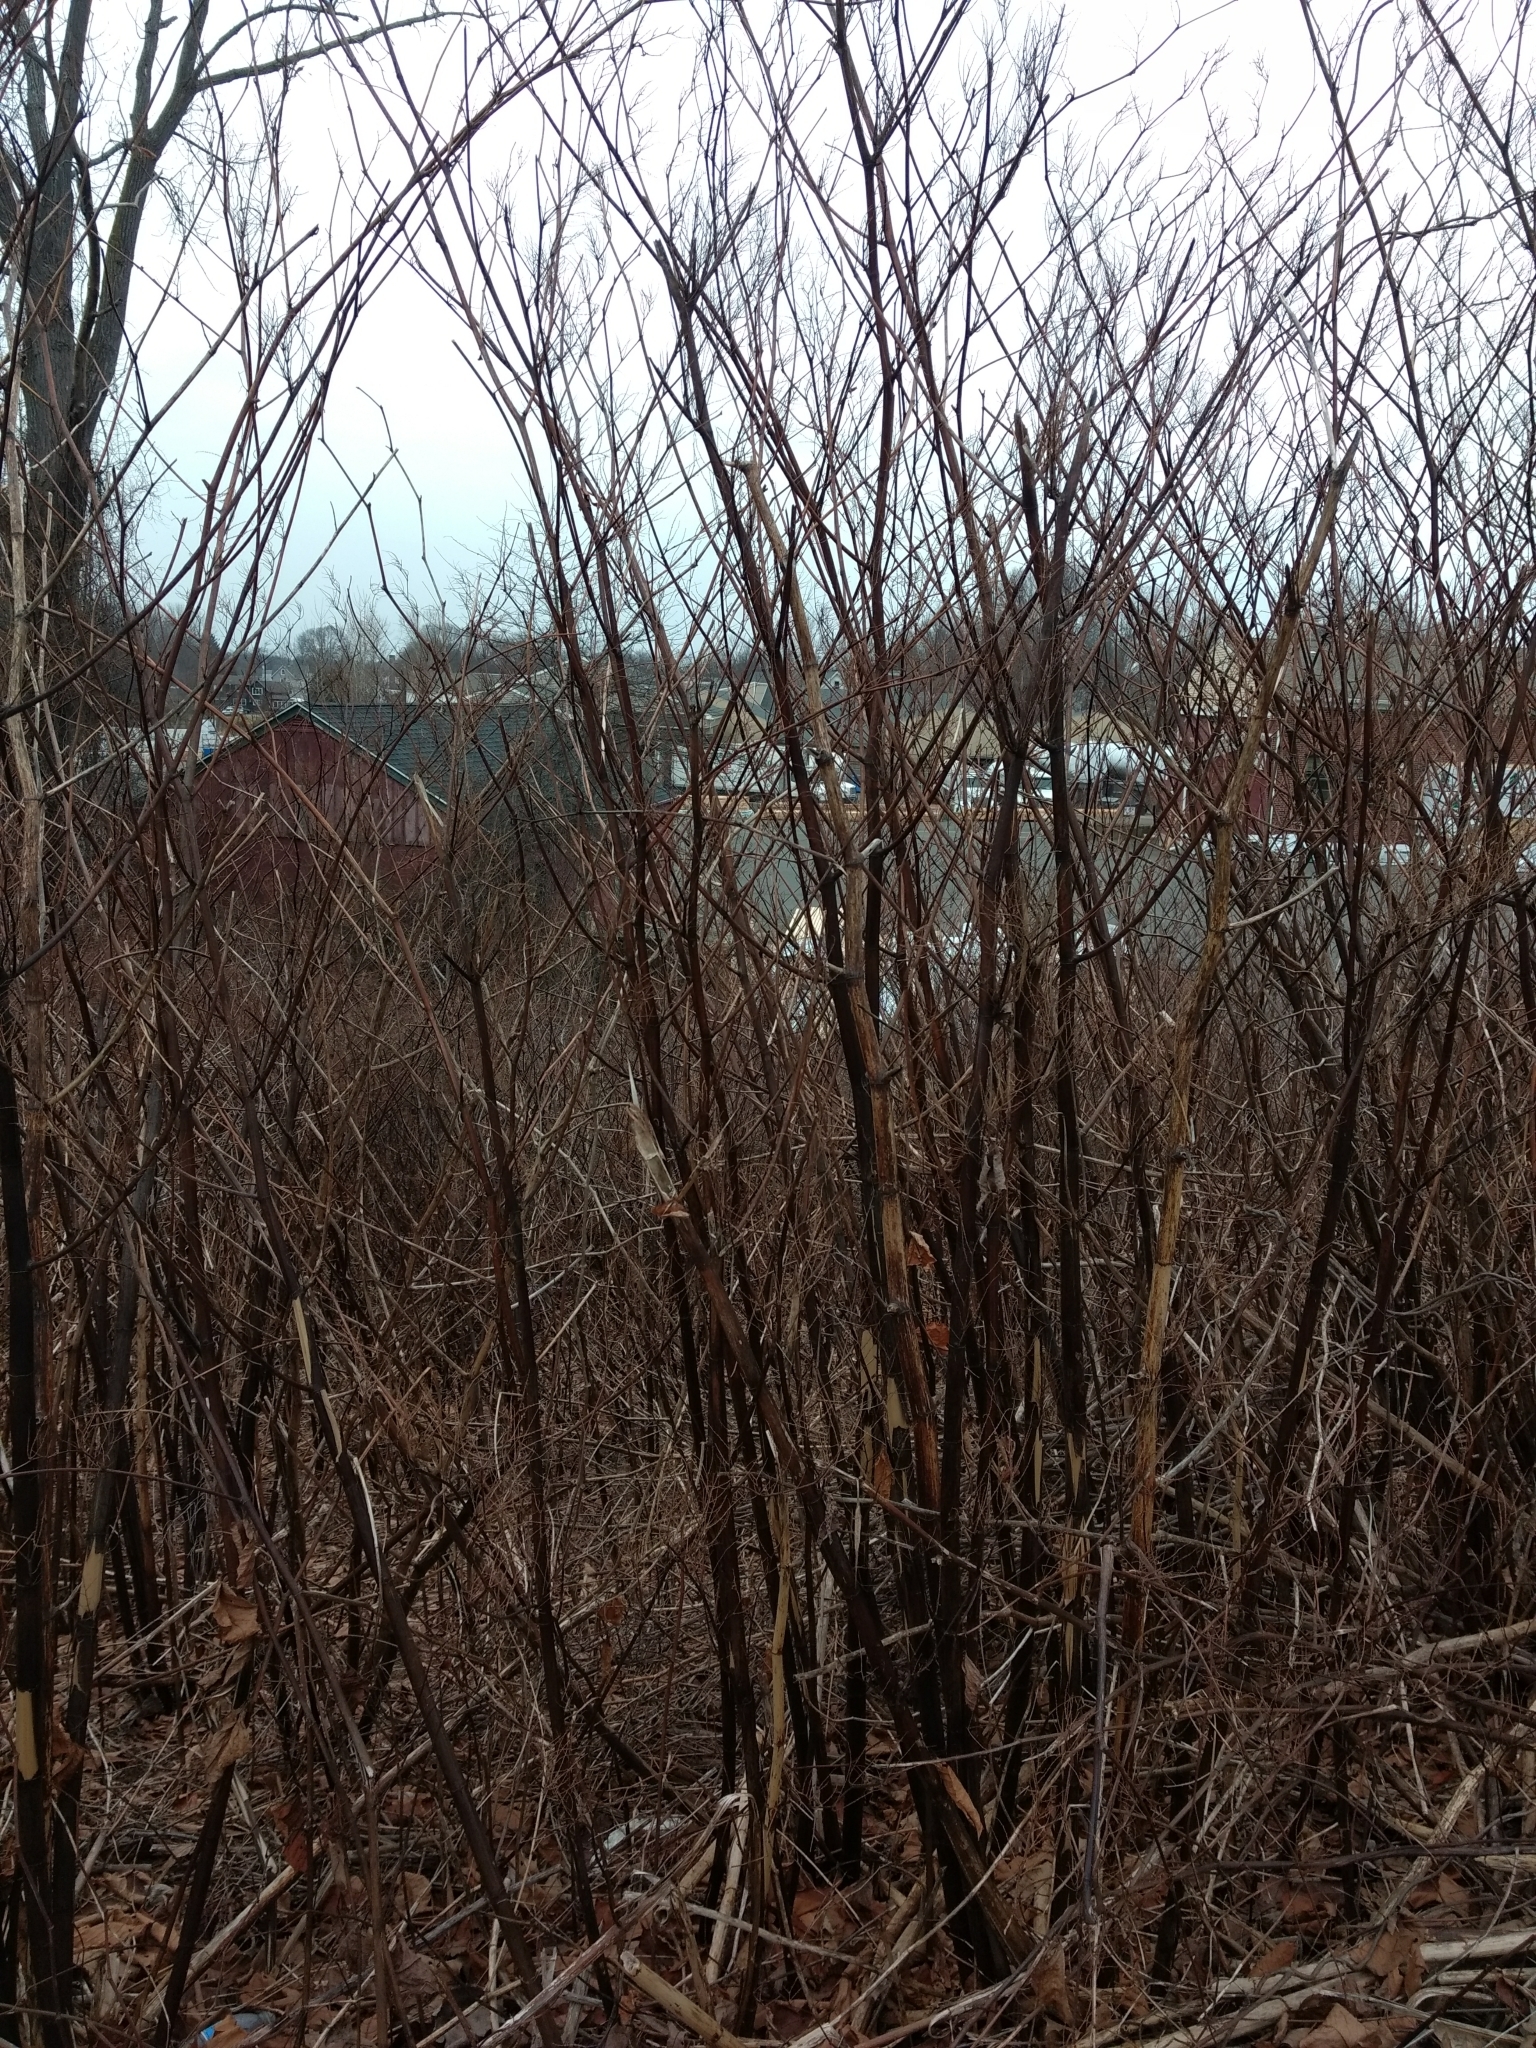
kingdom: Plantae
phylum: Tracheophyta
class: Magnoliopsida
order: Caryophyllales
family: Polygonaceae
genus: Reynoutria
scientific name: Reynoutria japonica
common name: Japanese knotweed
